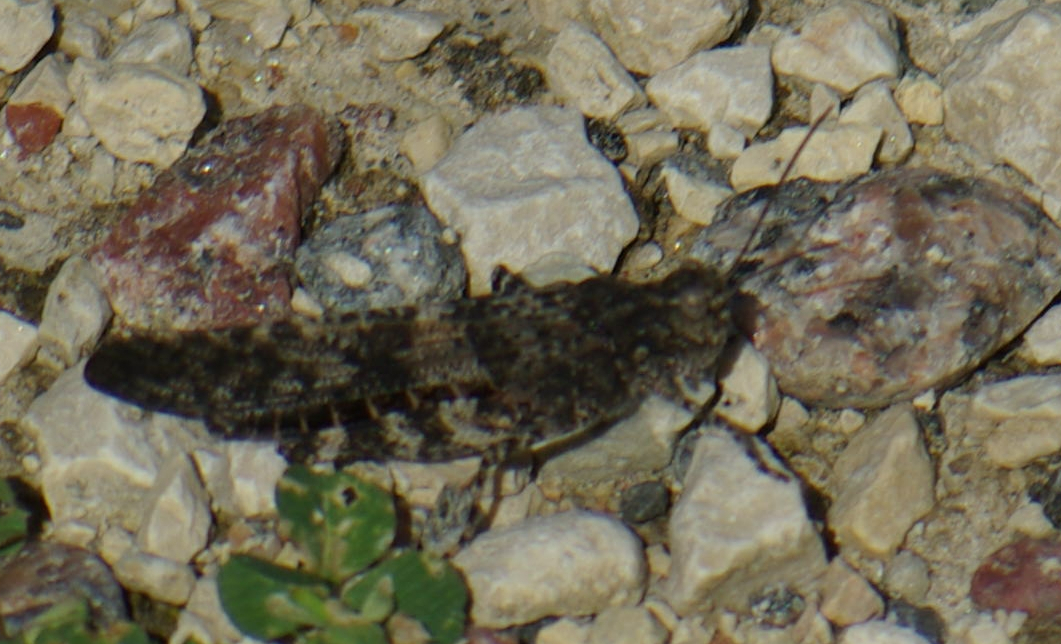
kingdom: Animalia
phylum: Arthropoda
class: Insecta
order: Orthoptera
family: Acrididae
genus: Trimerotropis
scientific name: Trimerotropis verruculata
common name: Crackling forest grasshopper
